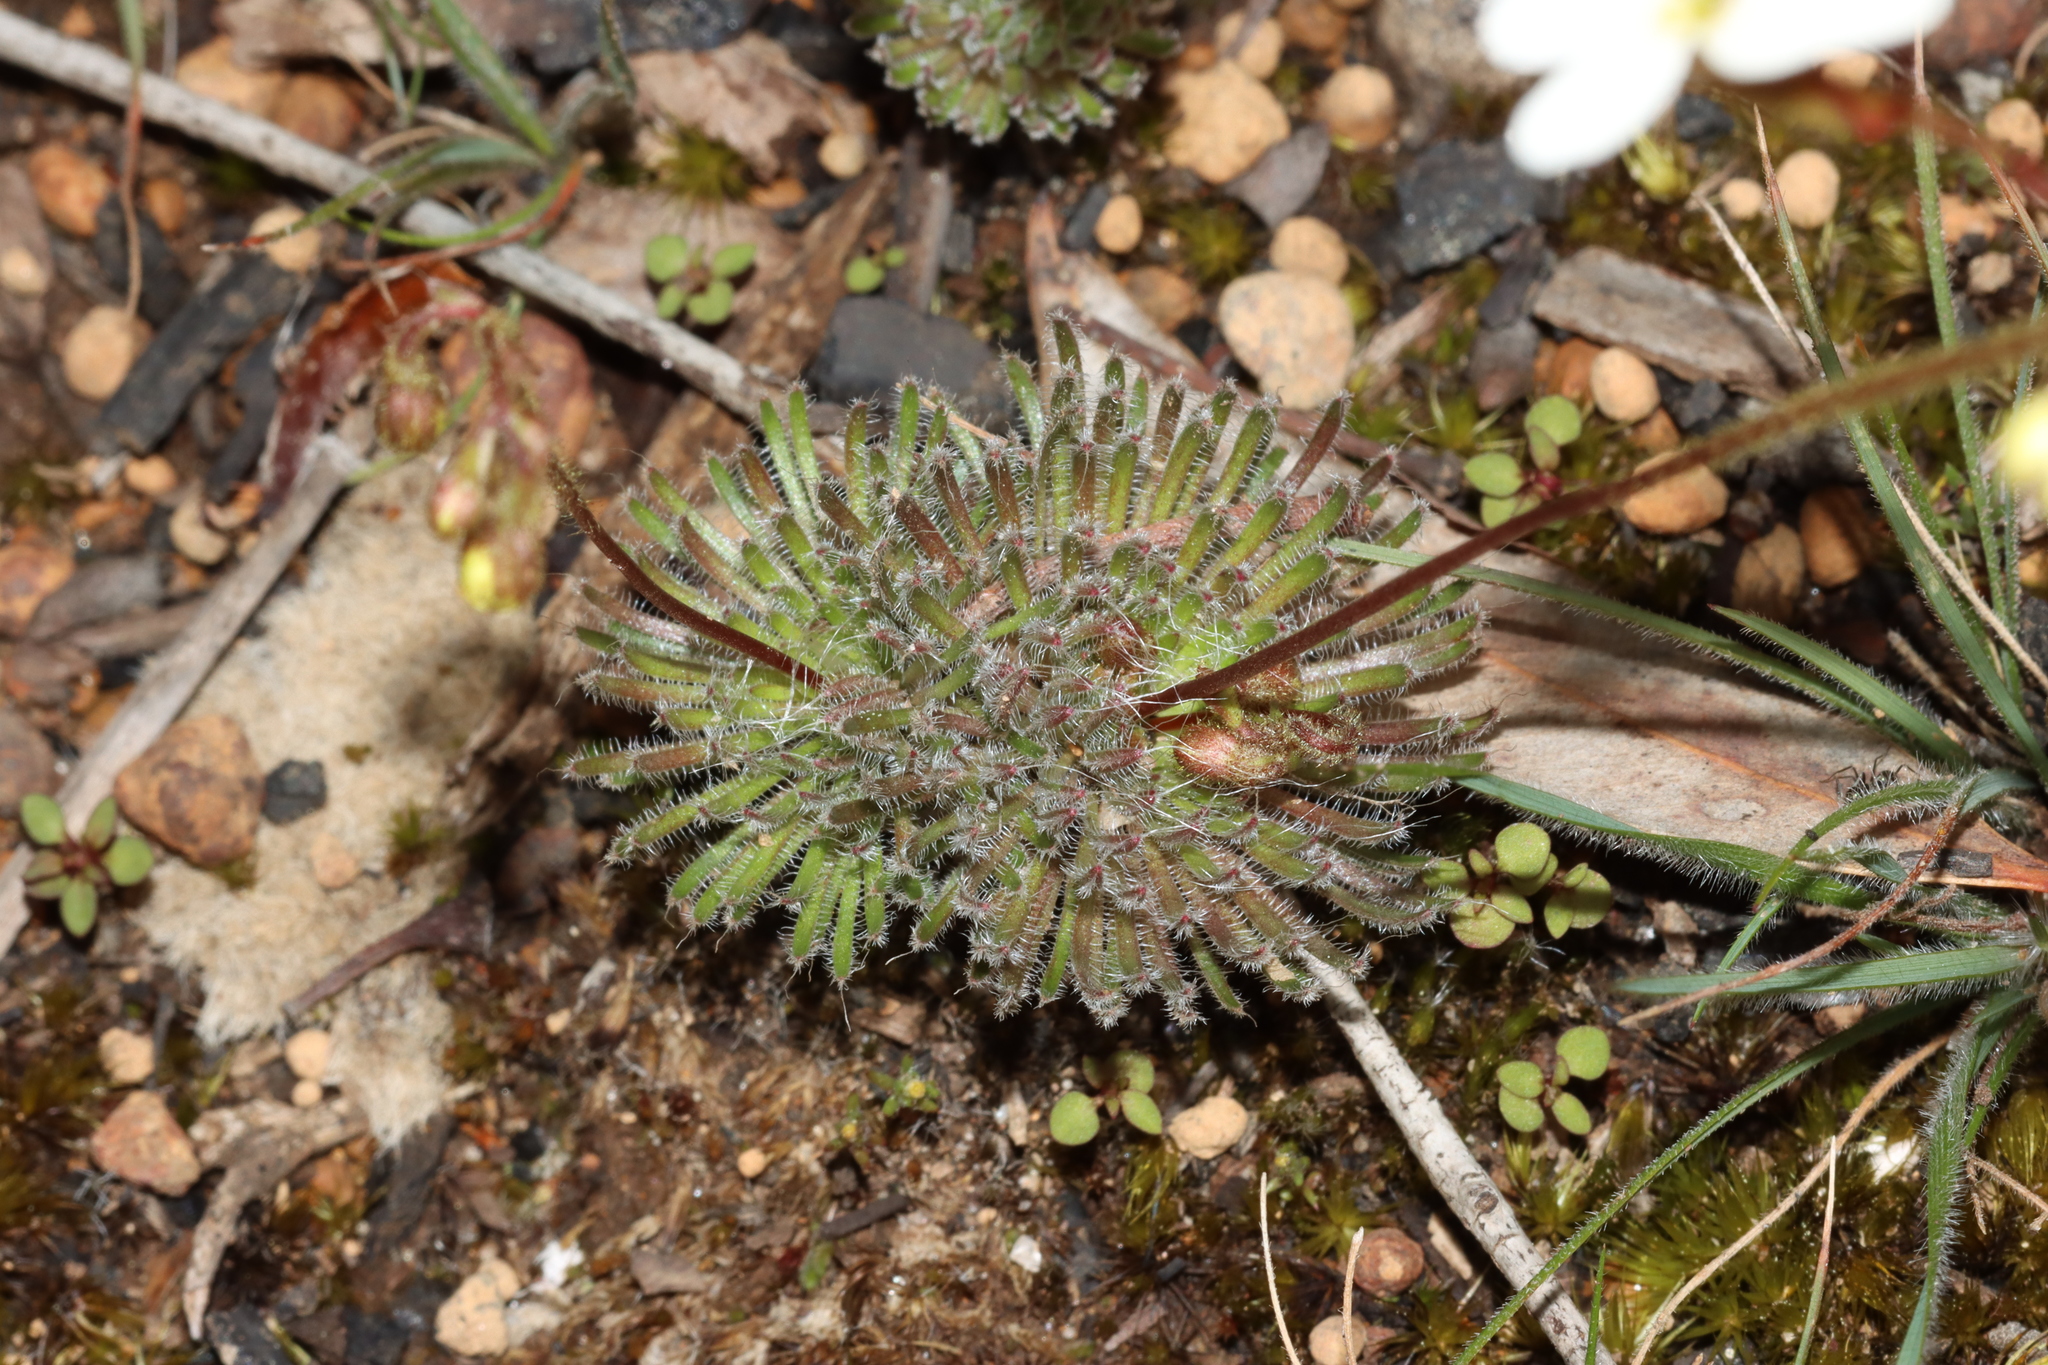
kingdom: Plantae
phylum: Tracheophyta
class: Magnoliopsida
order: Asterales
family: Stylidiaceae
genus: Stylidium
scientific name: Stylidium piliferum
